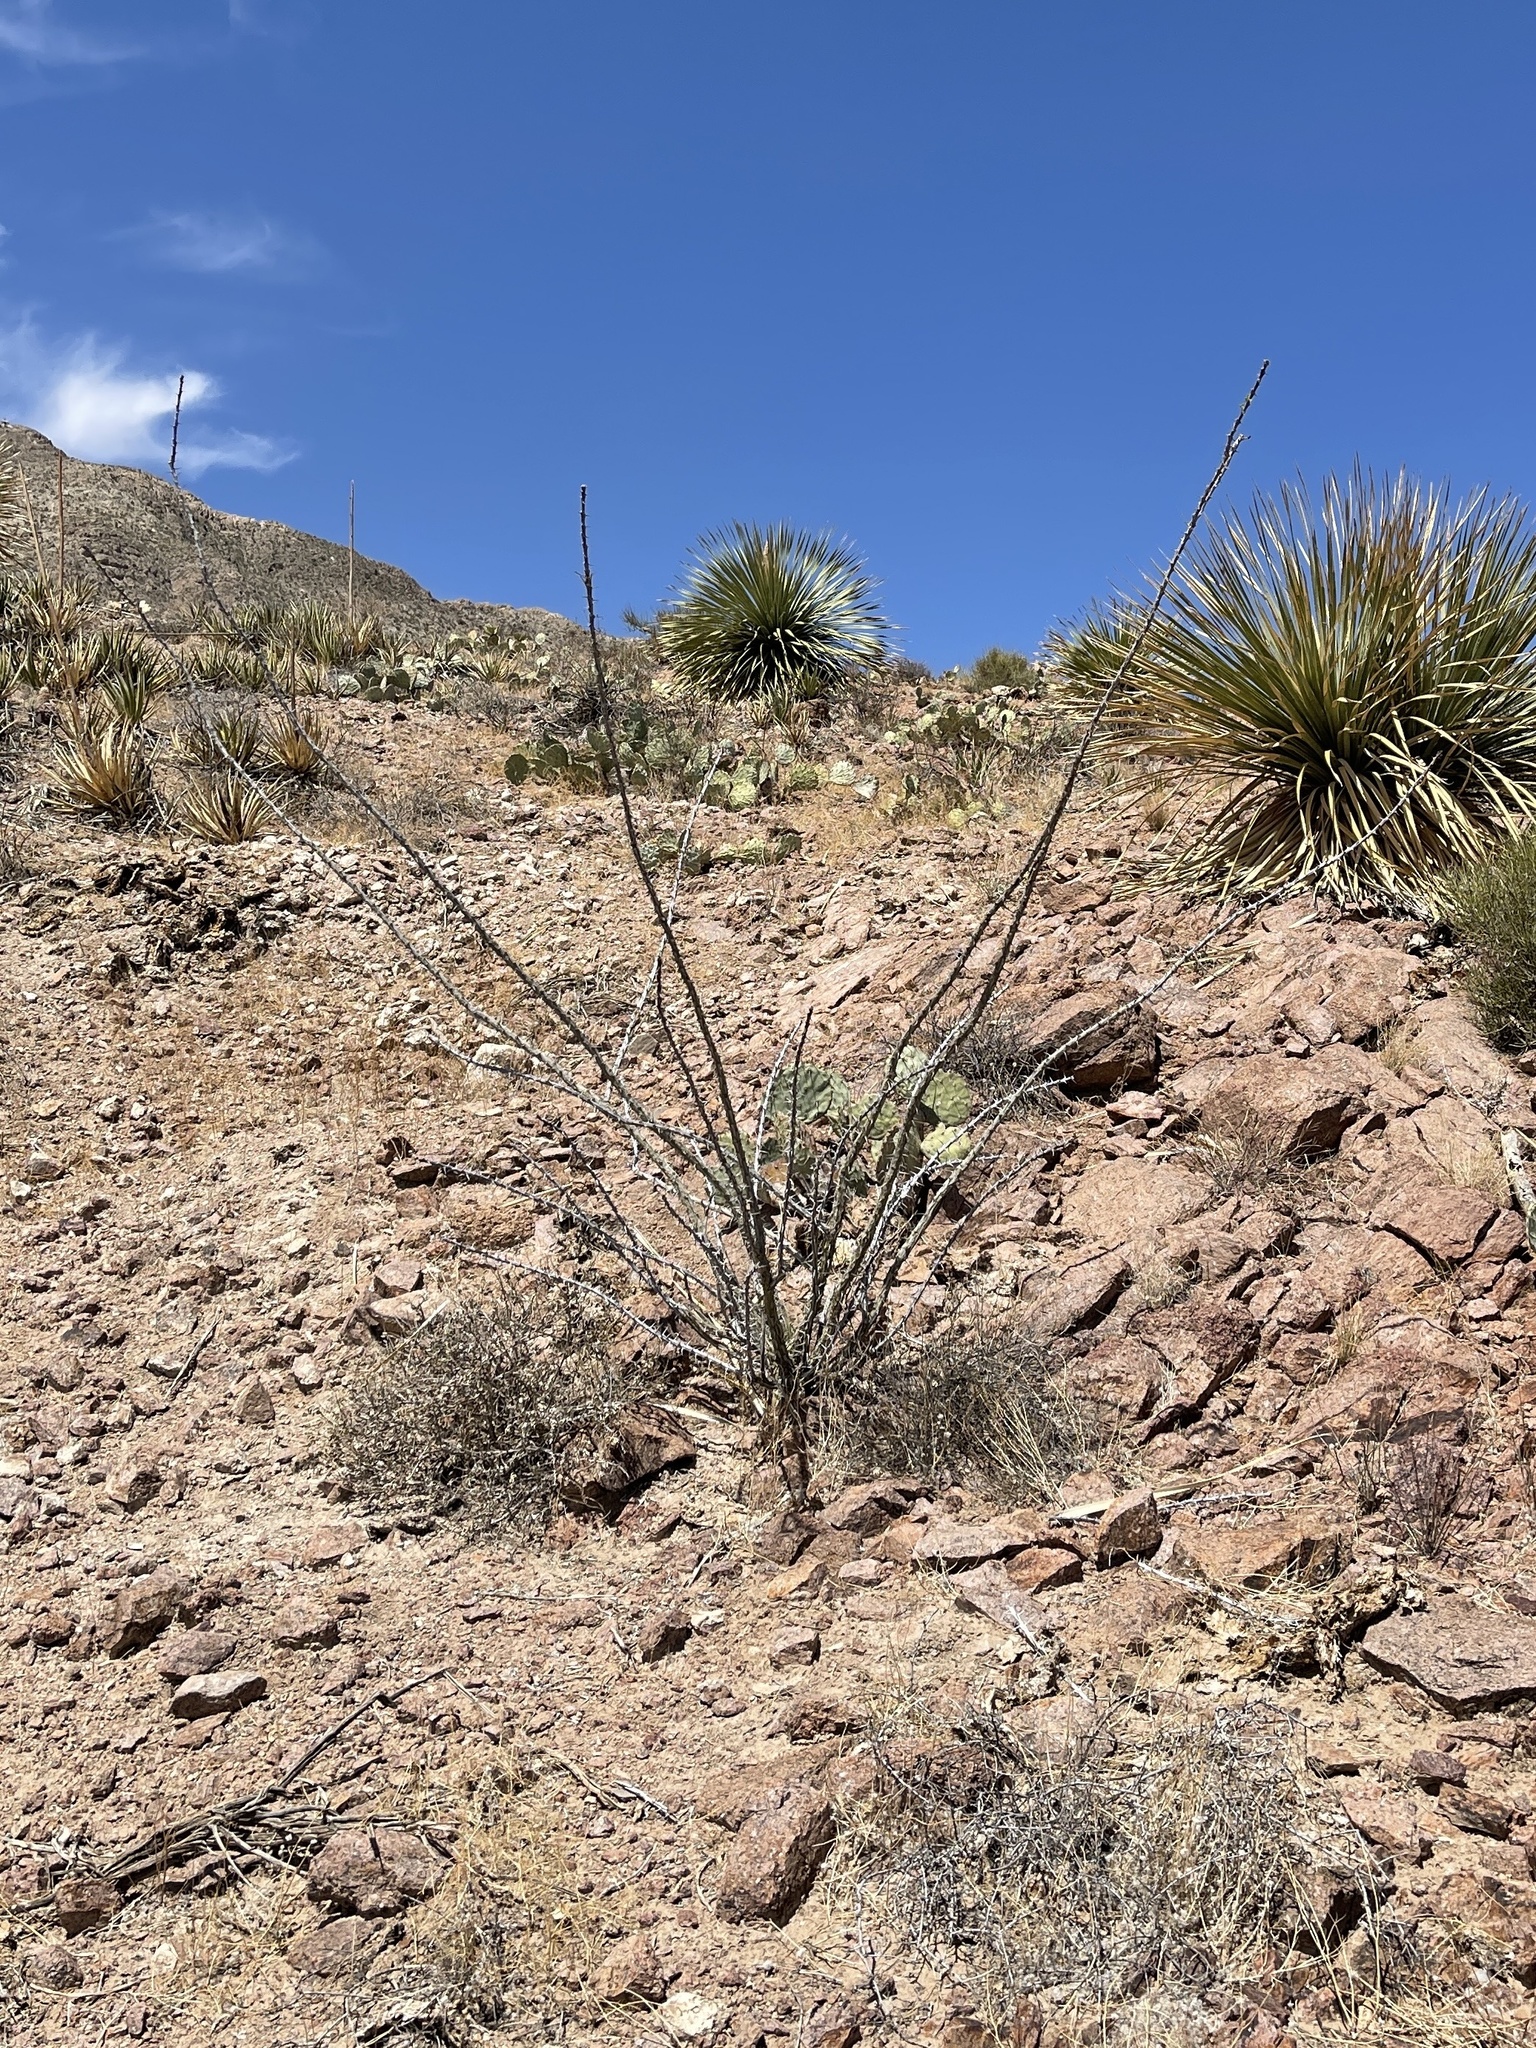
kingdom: Plantae
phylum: Tracheophyta
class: Magnoliopsida
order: Ericales
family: Fouquieriaceae
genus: Fouquieria
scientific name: Fouquieria splendens
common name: Vine-cactus
